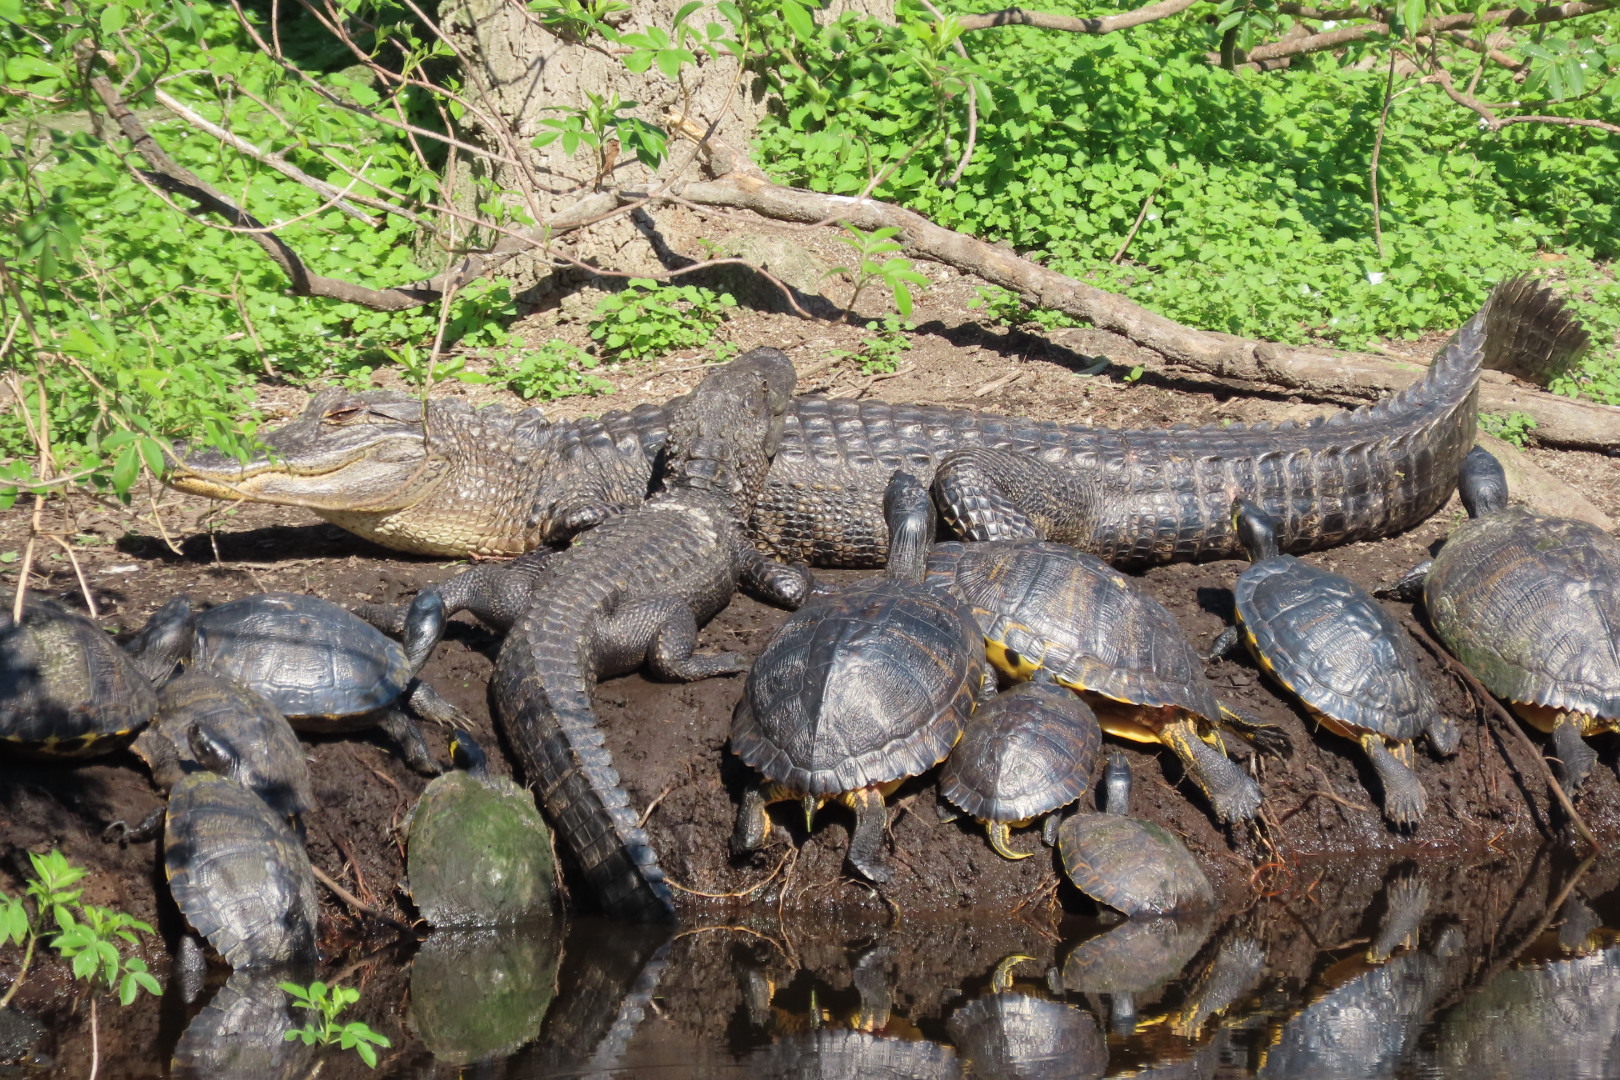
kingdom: Animalia
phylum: Chordata
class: Crocodylia
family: Alligatoridae
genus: Alligator
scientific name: Alligator mississippiensis
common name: American alligator
